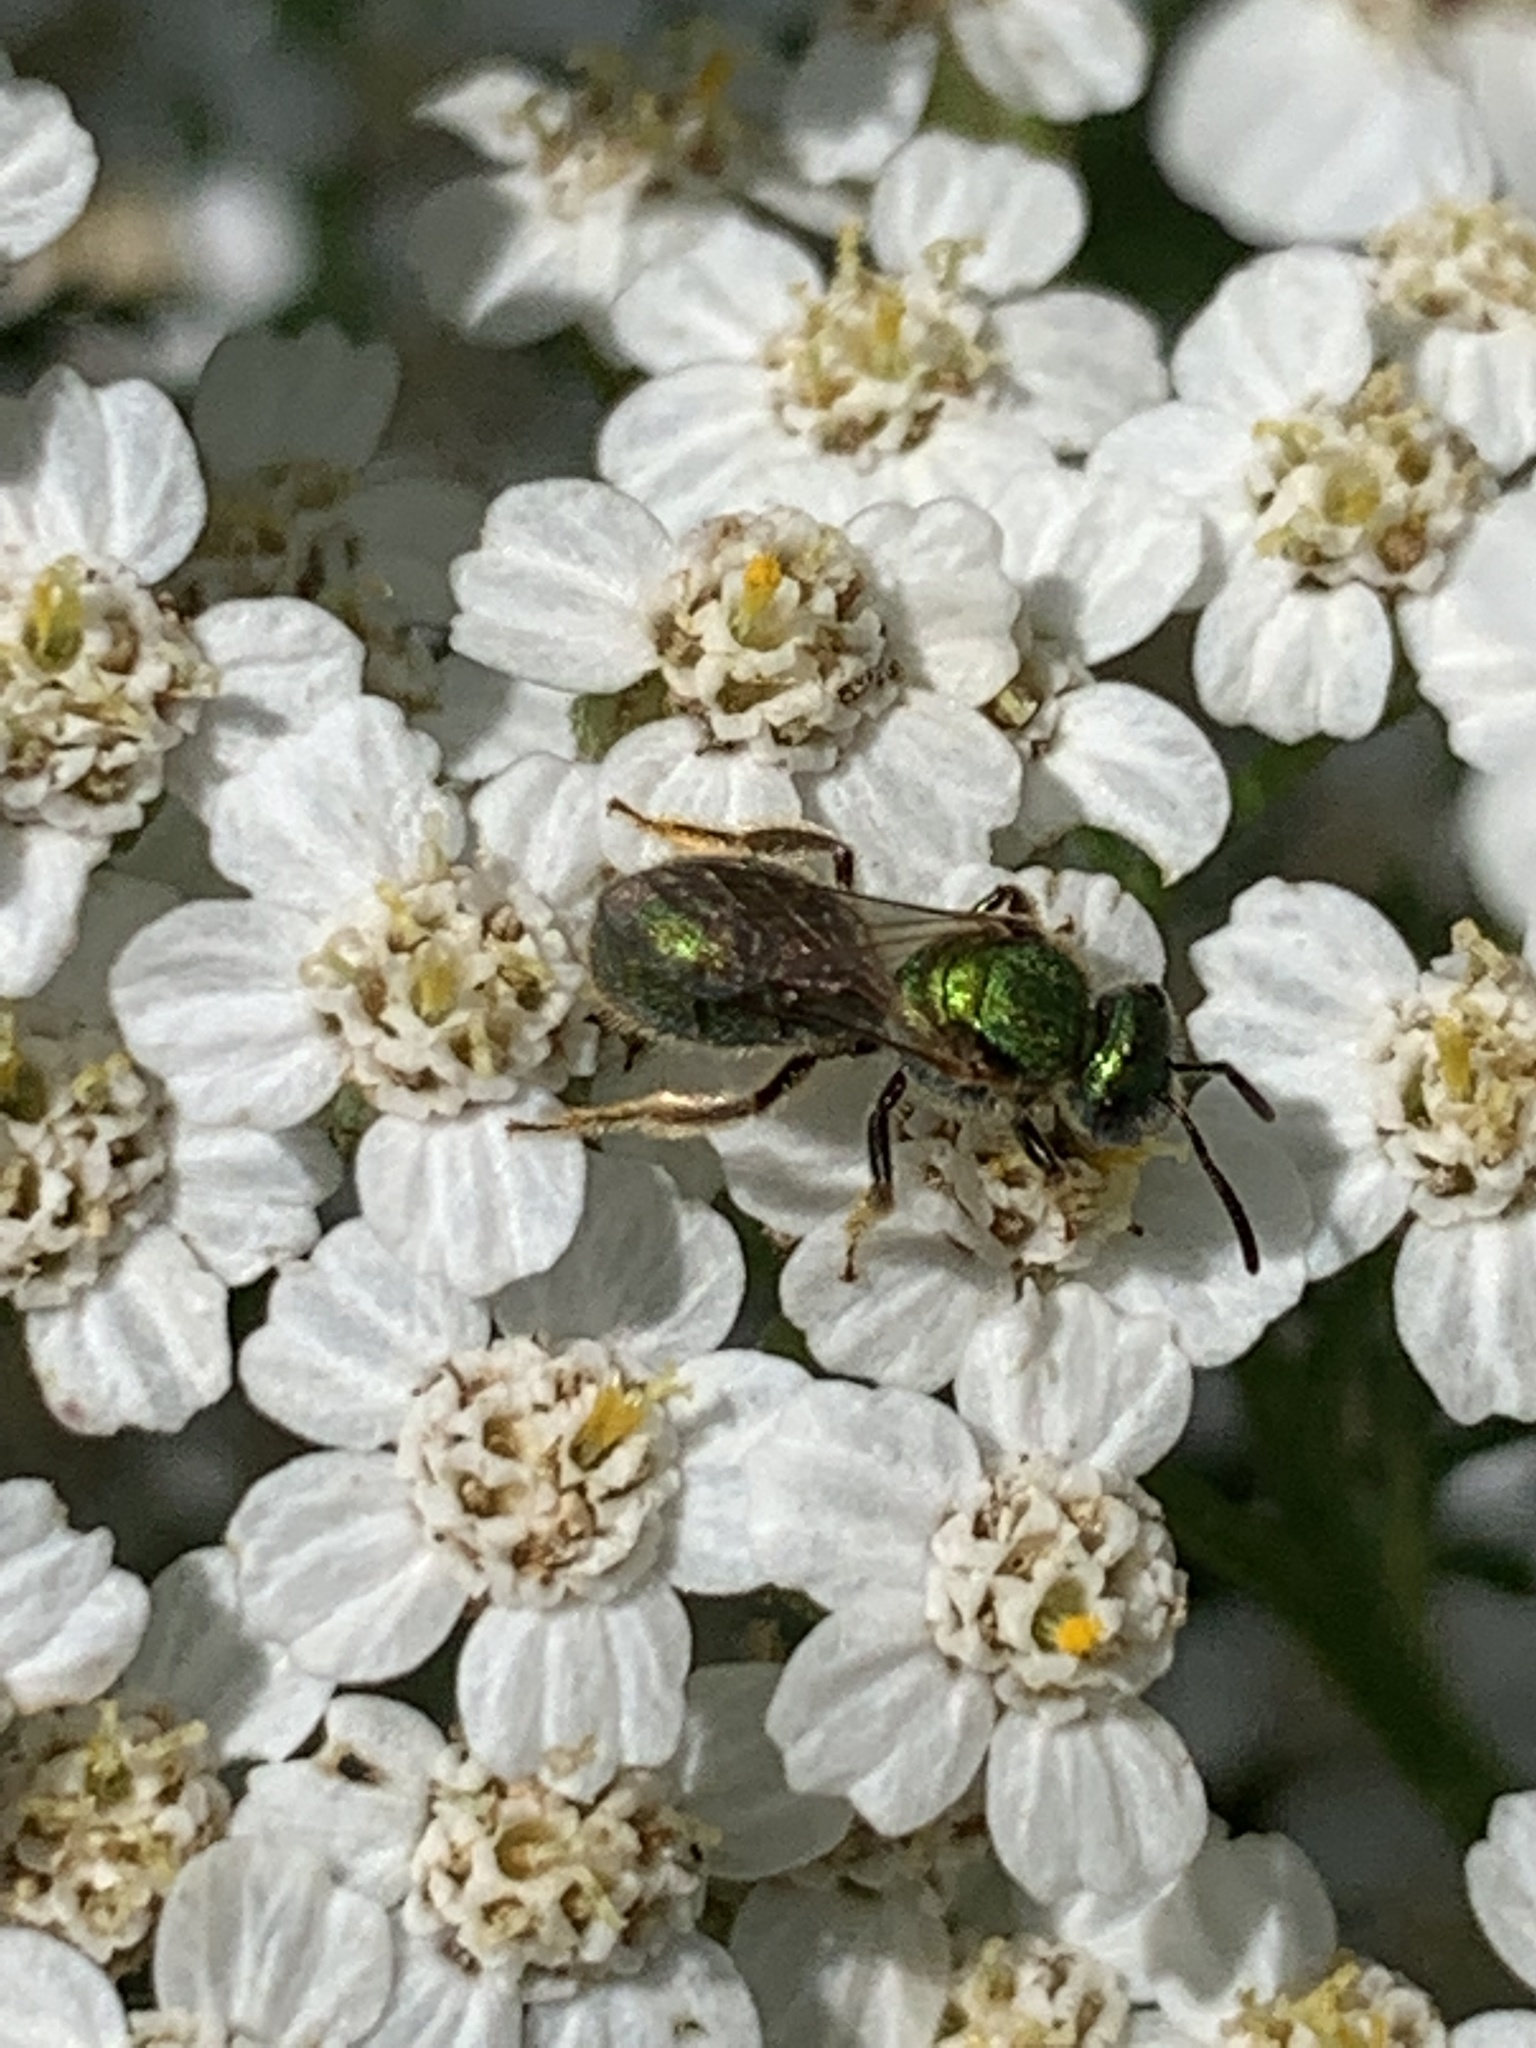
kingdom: Animalia
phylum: Arthropoda
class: Insecta
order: Hymenoptera
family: Halictidae
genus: Augochlorella
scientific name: Augochlorella aurata
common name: Golden sweat bee
